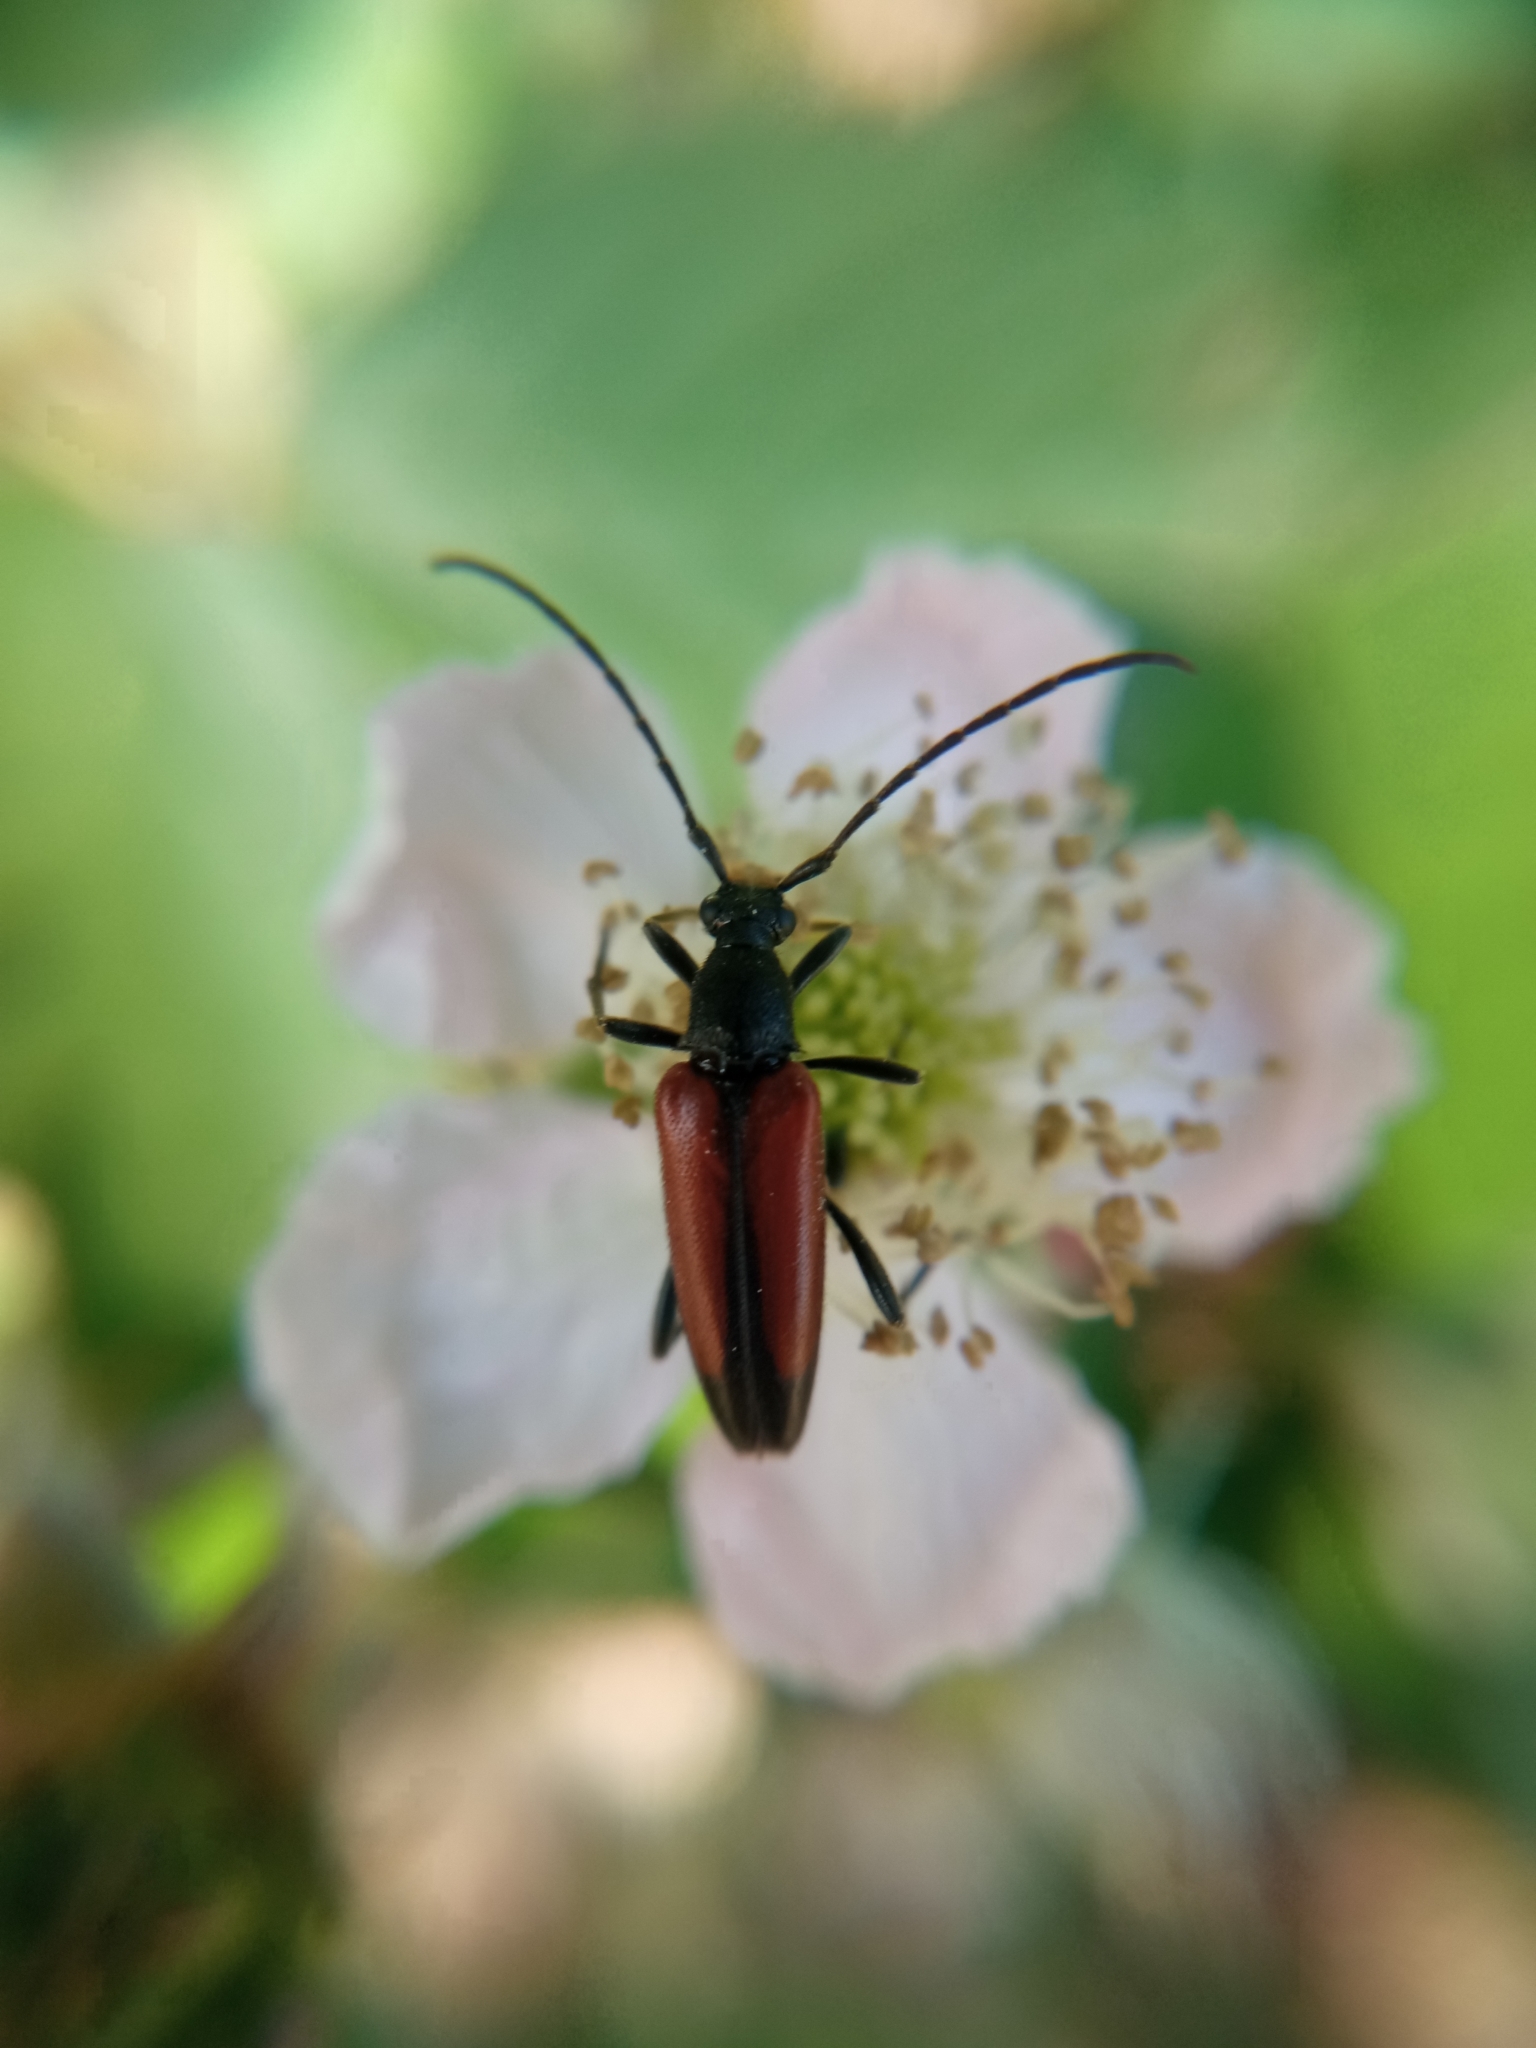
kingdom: Animalia
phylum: Arthropoda
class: Insecta
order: Coleoptera
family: Cerambycidae
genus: Stenurella
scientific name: Stenurella melanura
